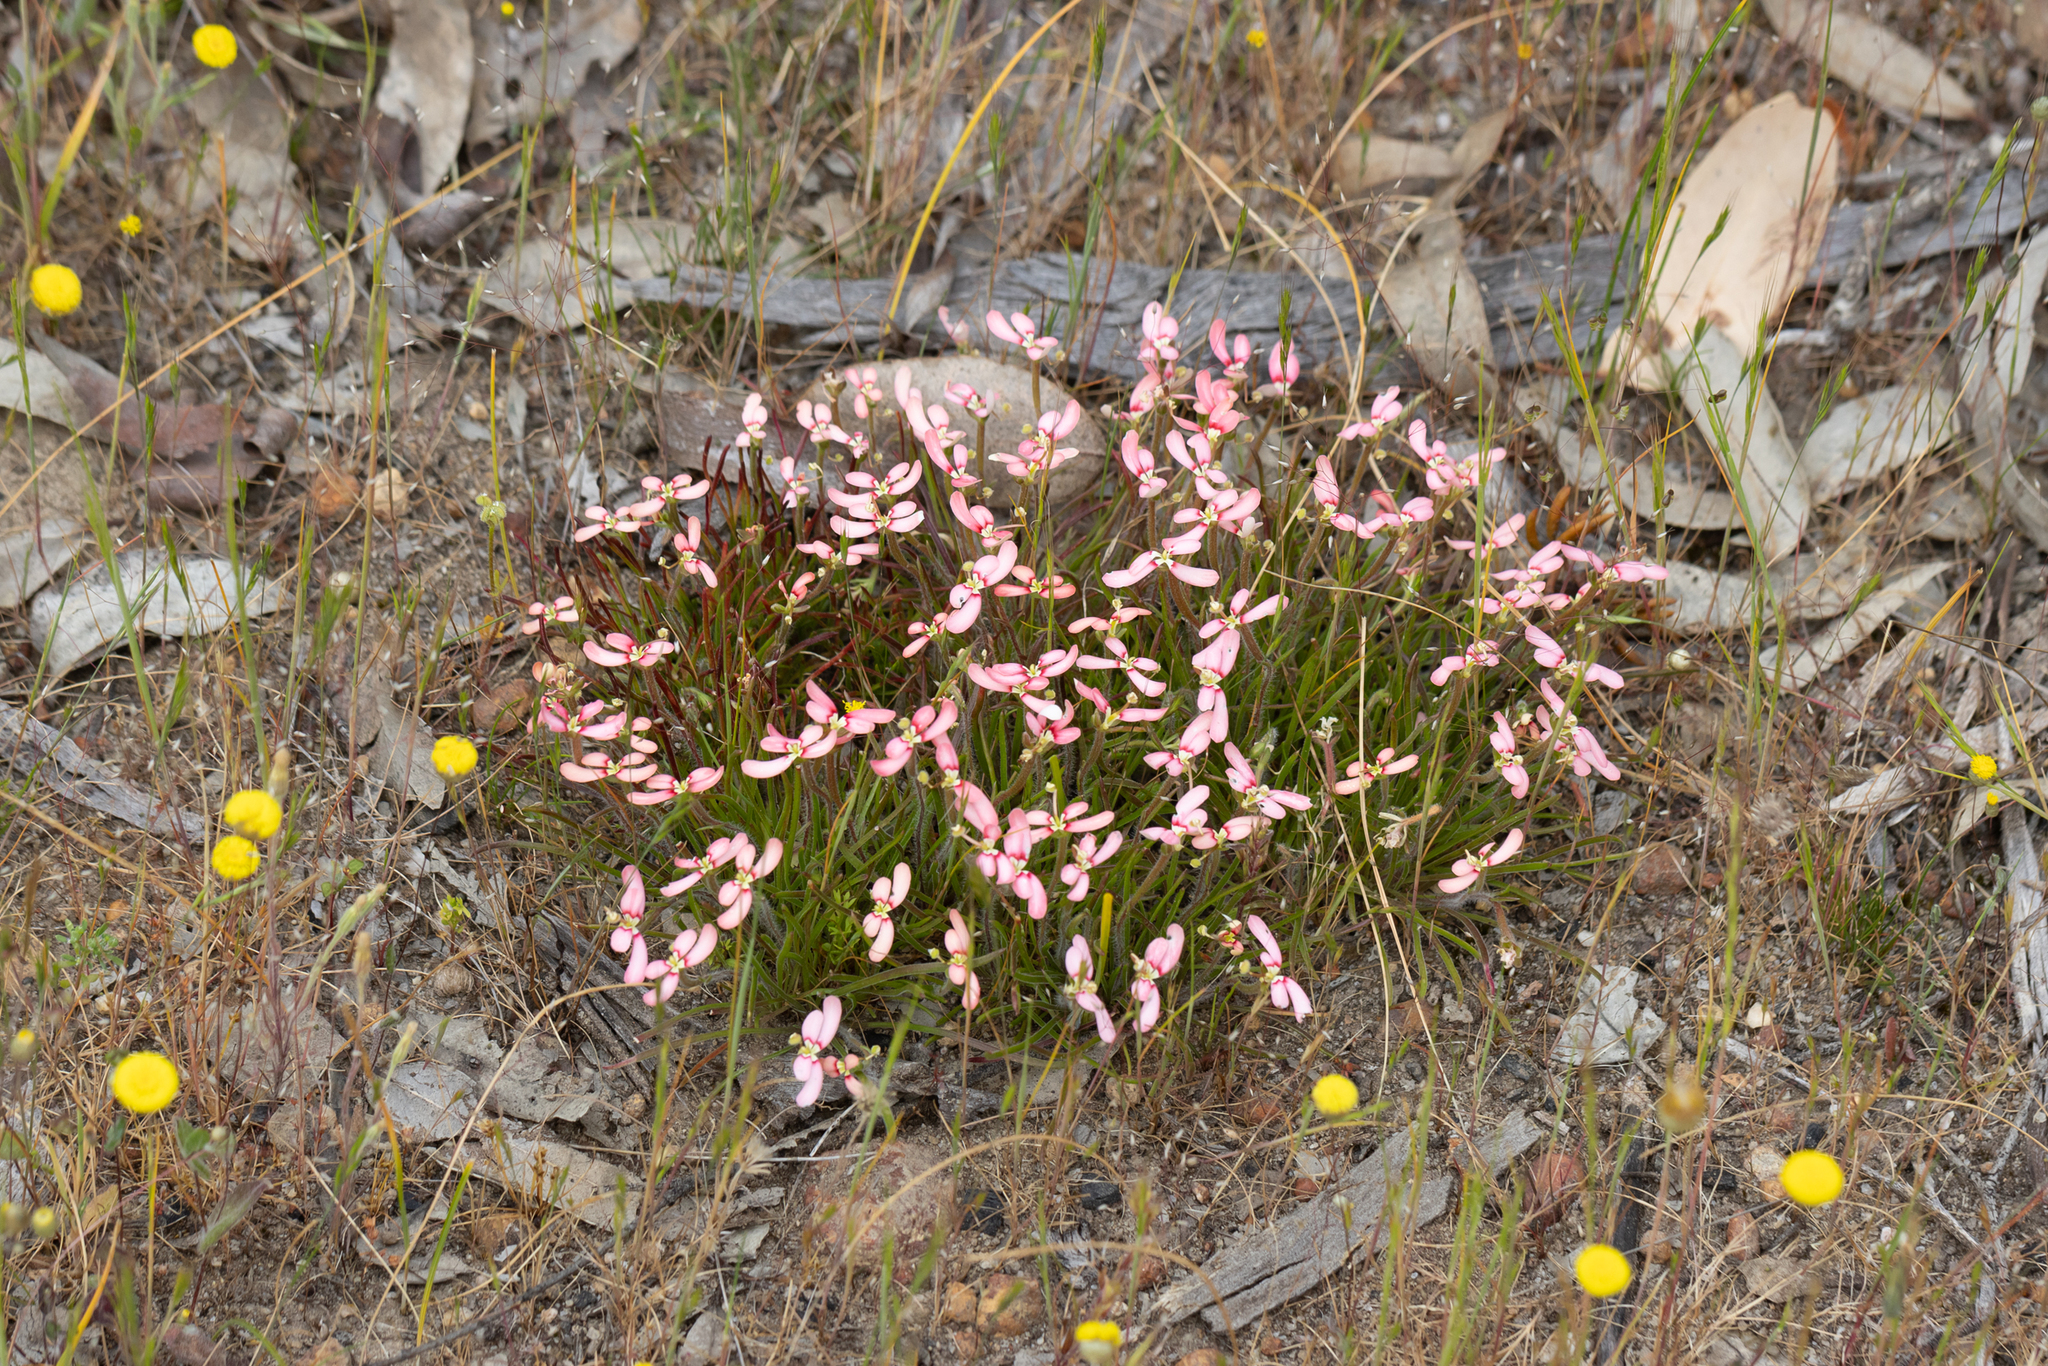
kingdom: Plantae
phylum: Tracheophyta
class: Magnoliopsida
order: Asterales
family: Stylidiaceae
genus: Stylidium
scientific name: Stylidium uniflorum
